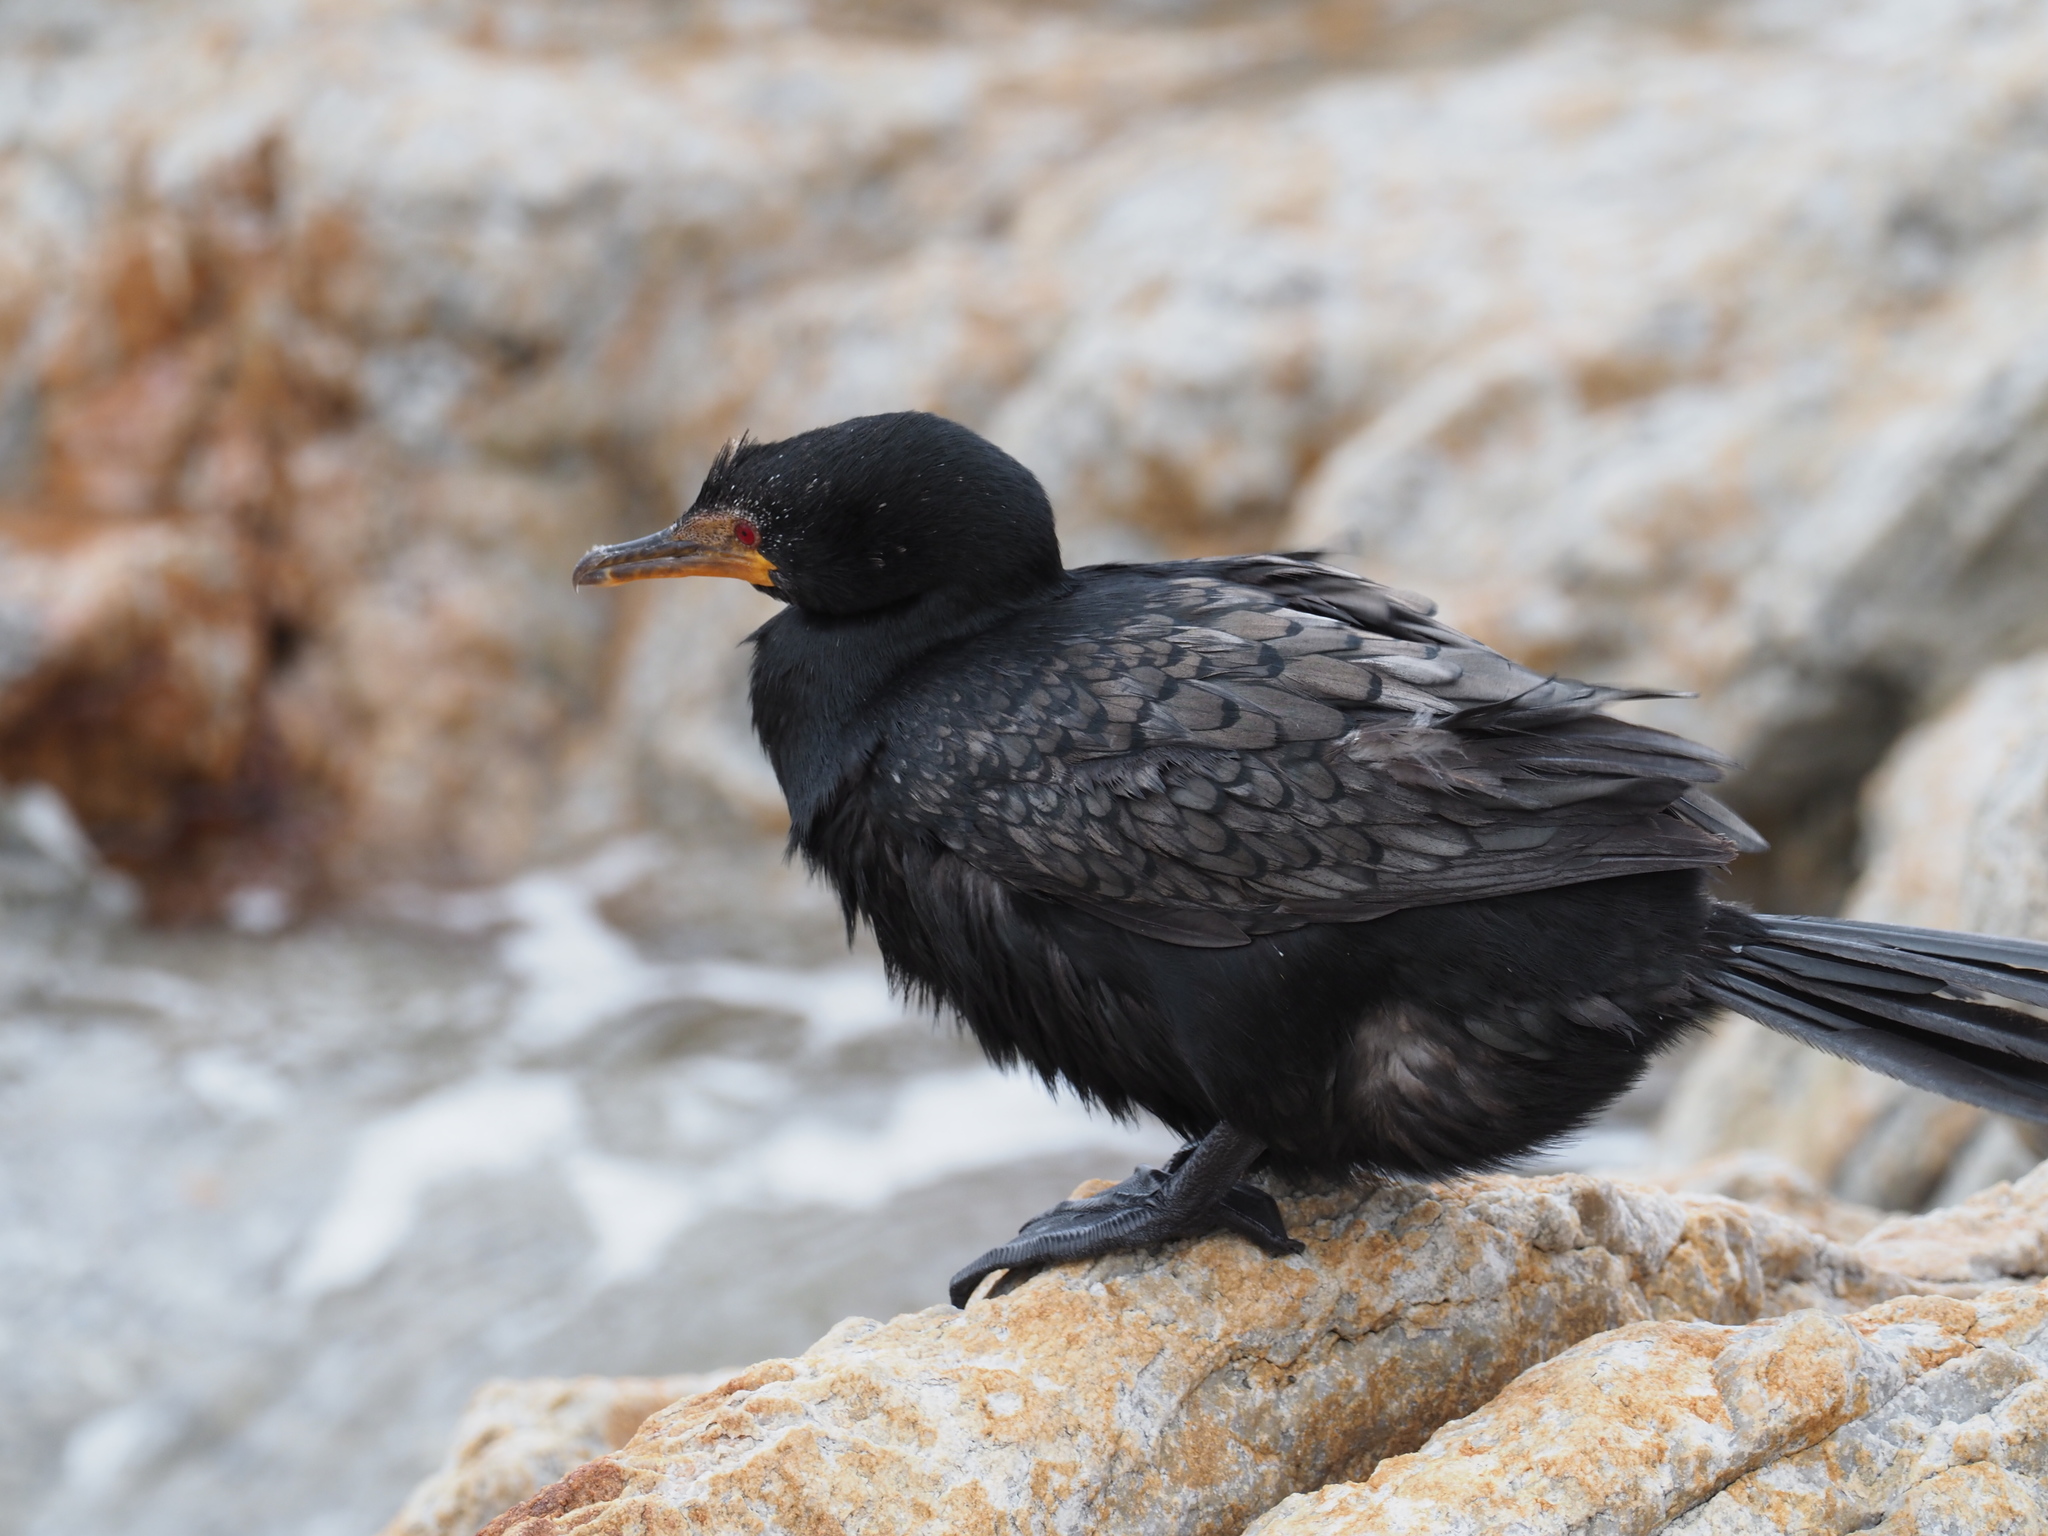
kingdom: Animalia
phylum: Chordata
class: Aves
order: Suliformes
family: Phalacrocoracidae
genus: Microcarbo
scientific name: Microcarbo coronatus
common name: Crowned cormorant
